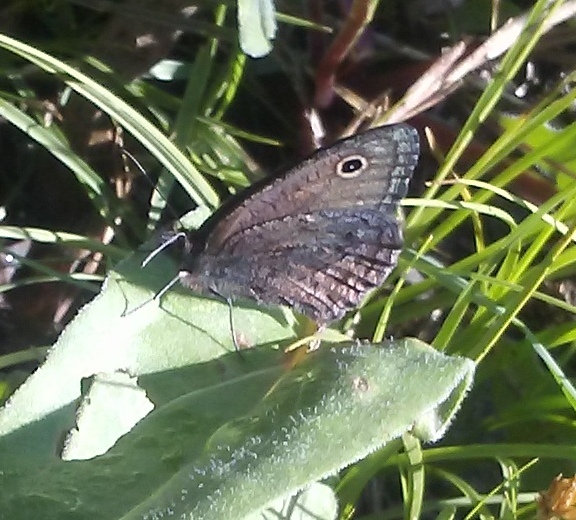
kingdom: Animalia
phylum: Arthropoda
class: Insecta
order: Lepidoptera
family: Nymphalidae
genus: Cercyonis
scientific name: Cercyonis oetus
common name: Small wood-nymph
